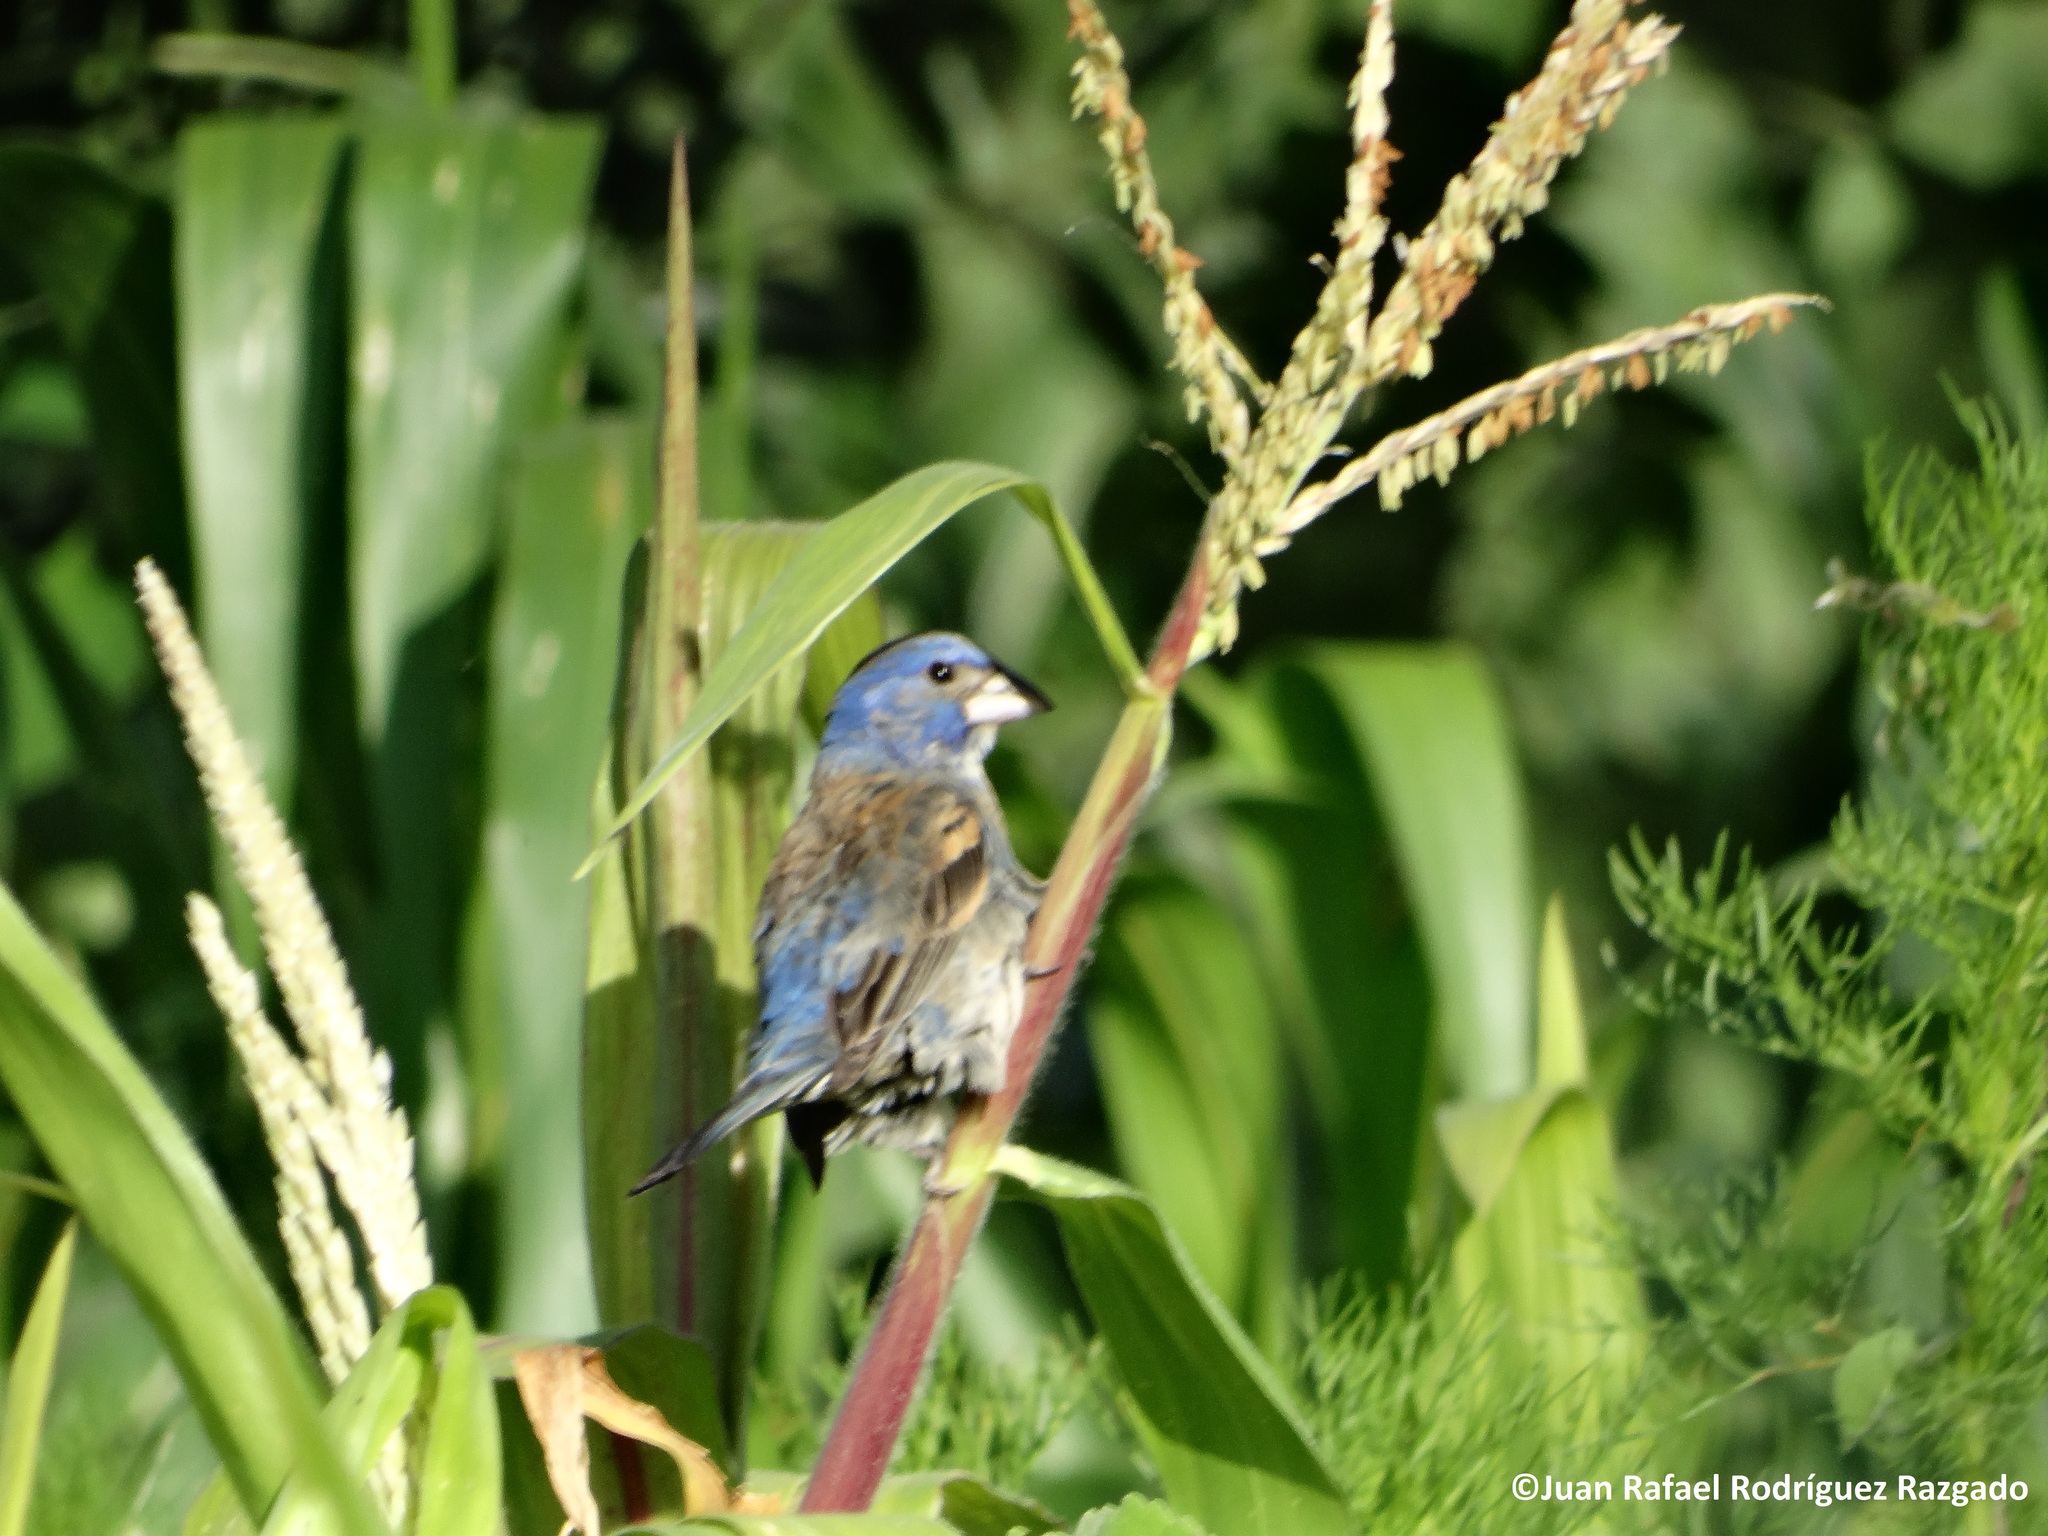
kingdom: Animalia
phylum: Chordata
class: Aves
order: Passeriformes
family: Cardinalidae
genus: Passerina
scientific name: Passerina caerulea
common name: Blue grosbeak
